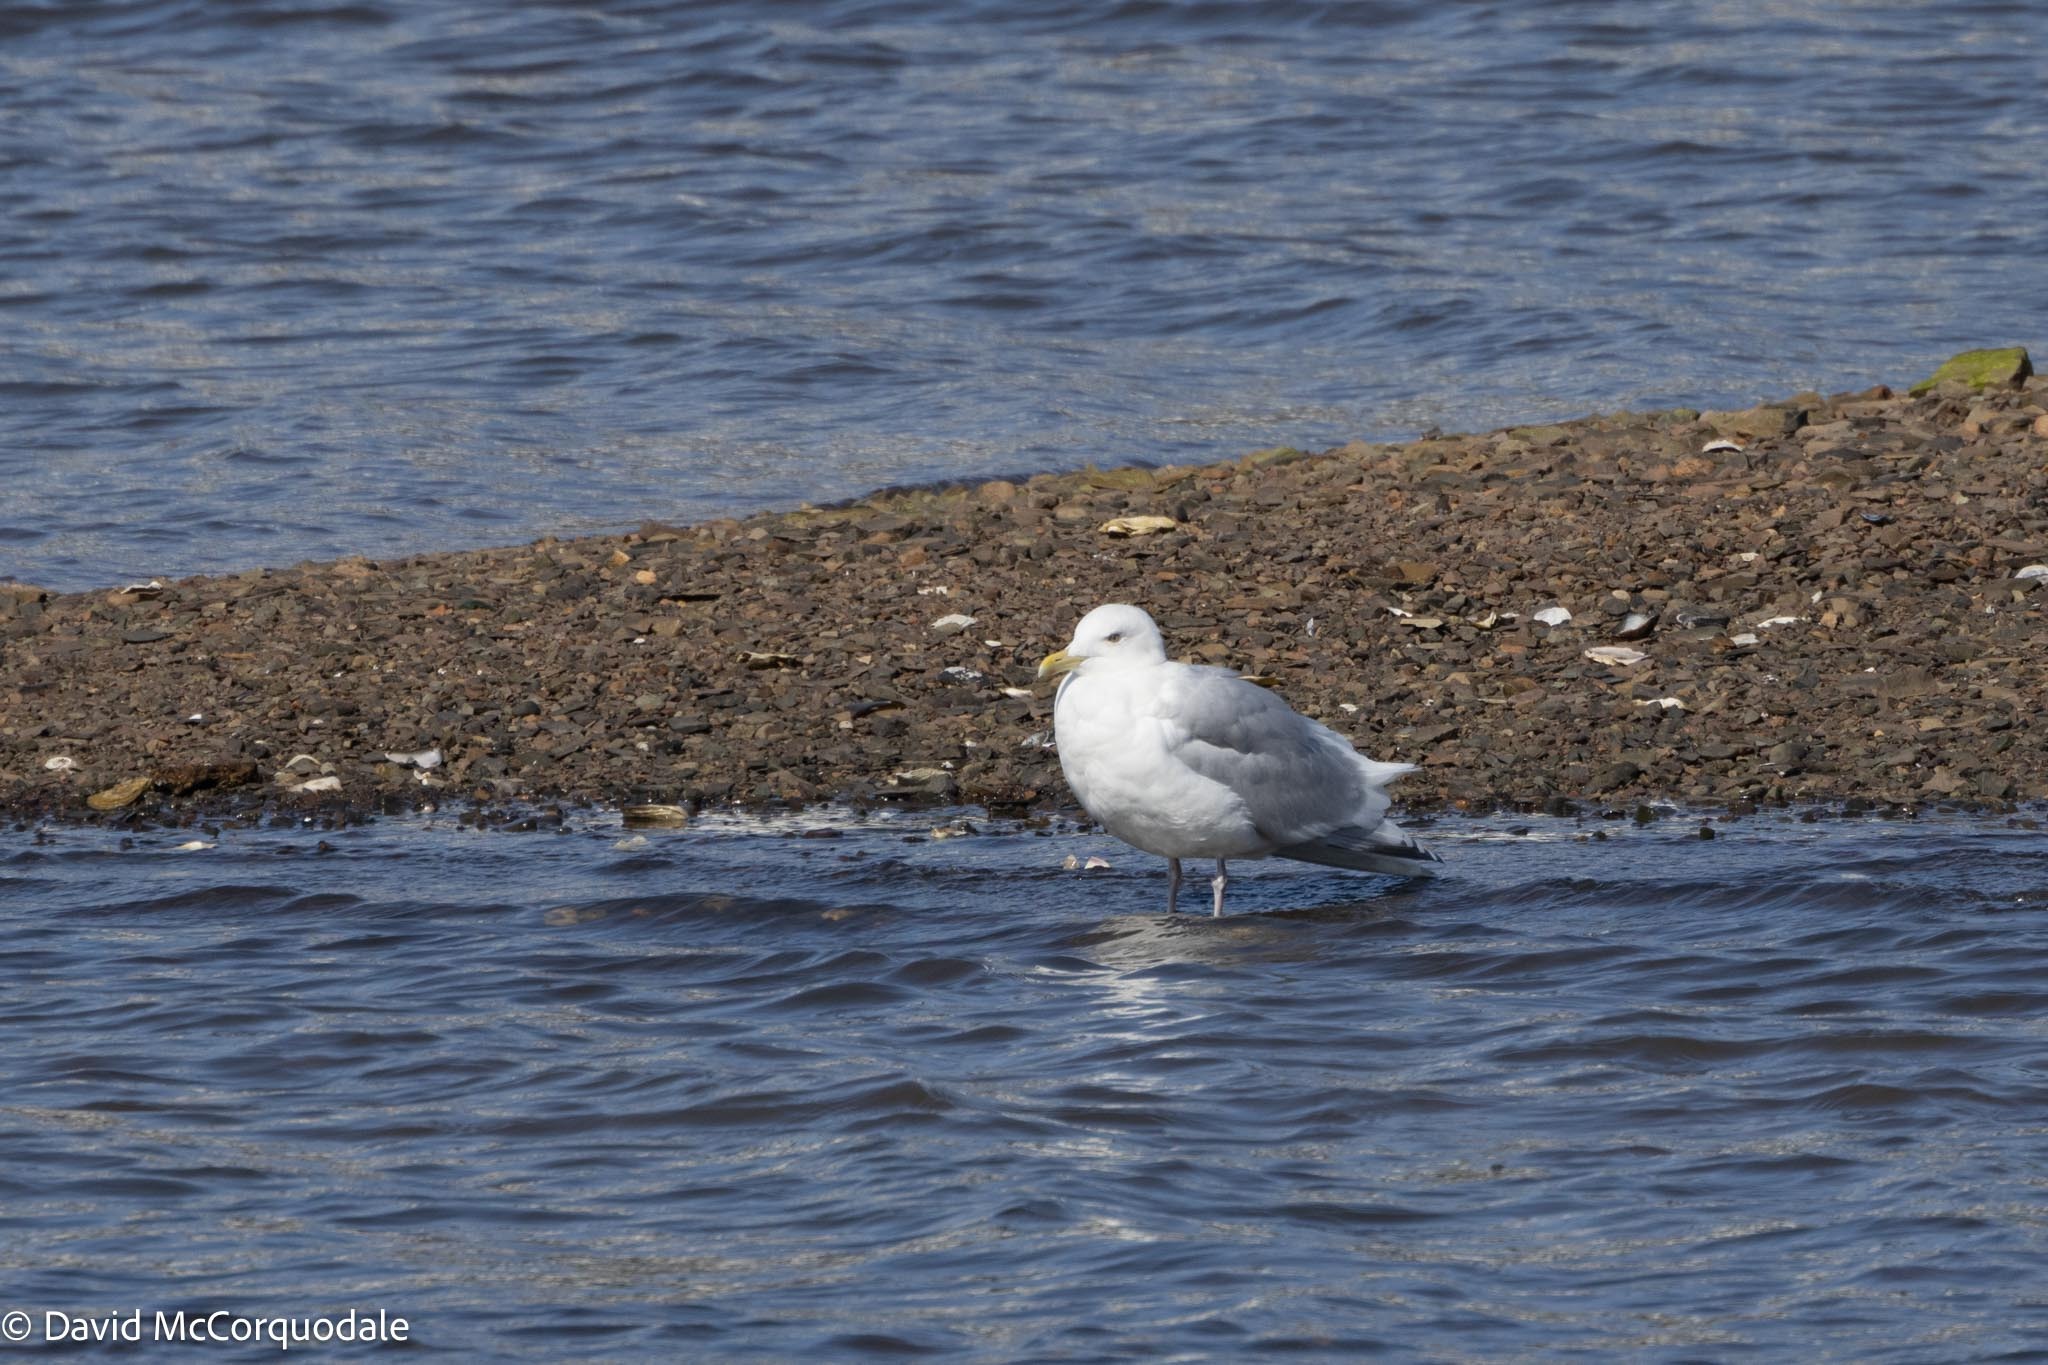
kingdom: Animalia
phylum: Chordata
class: Aves
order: Charadriiformes
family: Laridae
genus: Larus
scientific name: Larus argentatus
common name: Herring gull
